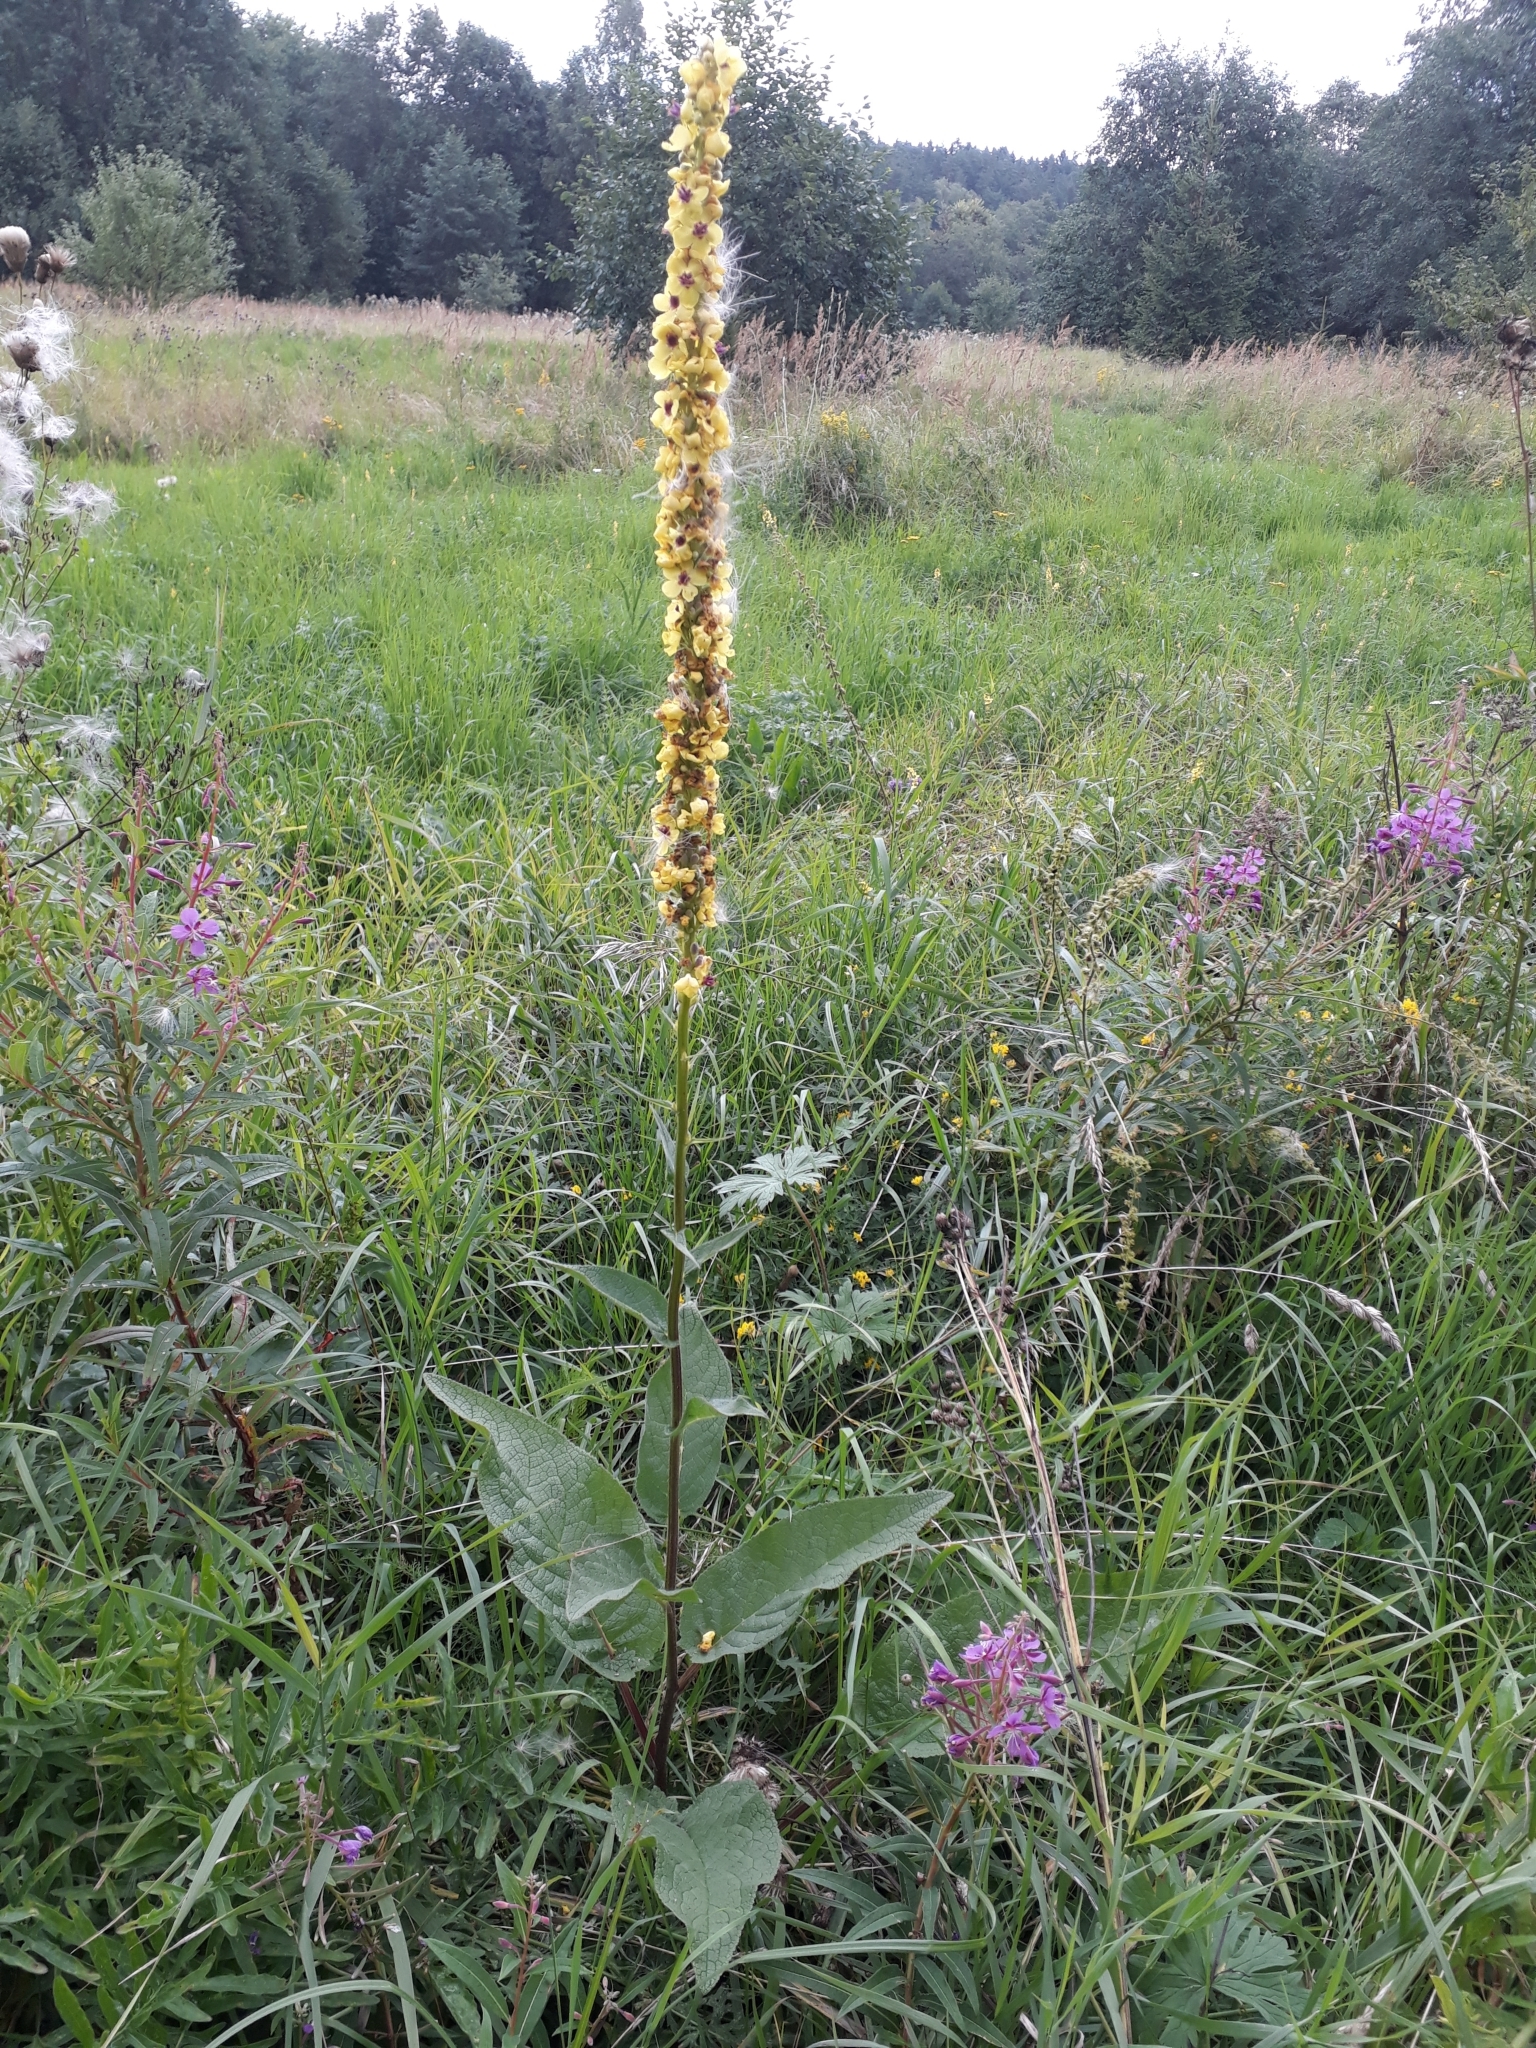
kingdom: Plantae
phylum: Tracheophyta
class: Magnoliopsida
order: Lamiales
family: Scrophulariaceae
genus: Verbascum
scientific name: Verbascum nigrum
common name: Dark mullein
